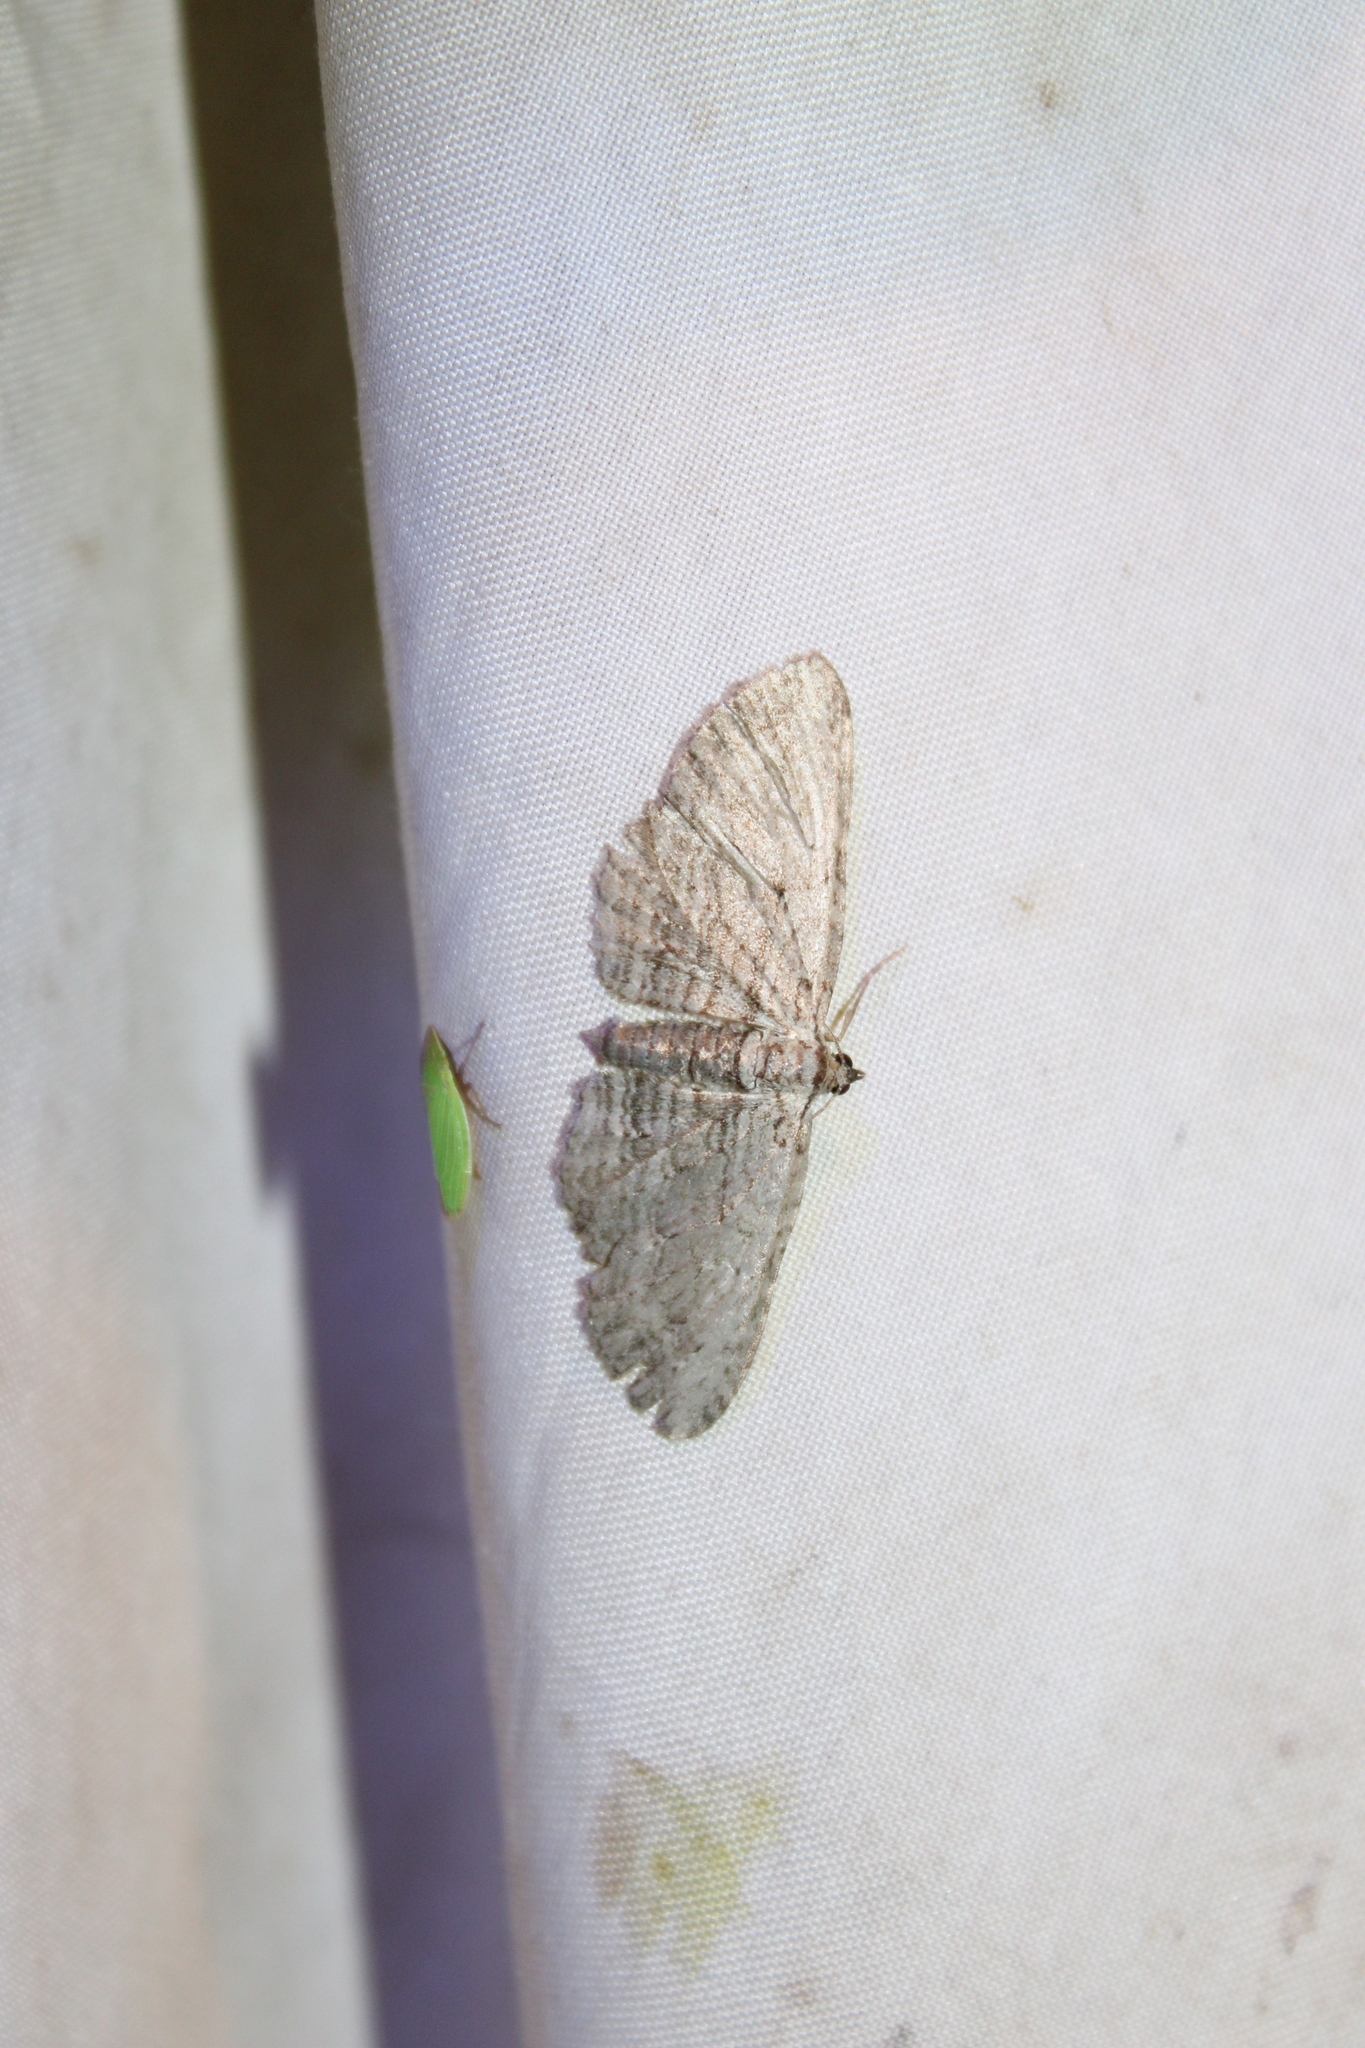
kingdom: Animalia
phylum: Arthropoda
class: Insecta
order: Lepidoptera
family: Geometridae
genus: Horisme
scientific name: Horisme intestinata
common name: Brown bark carpet
